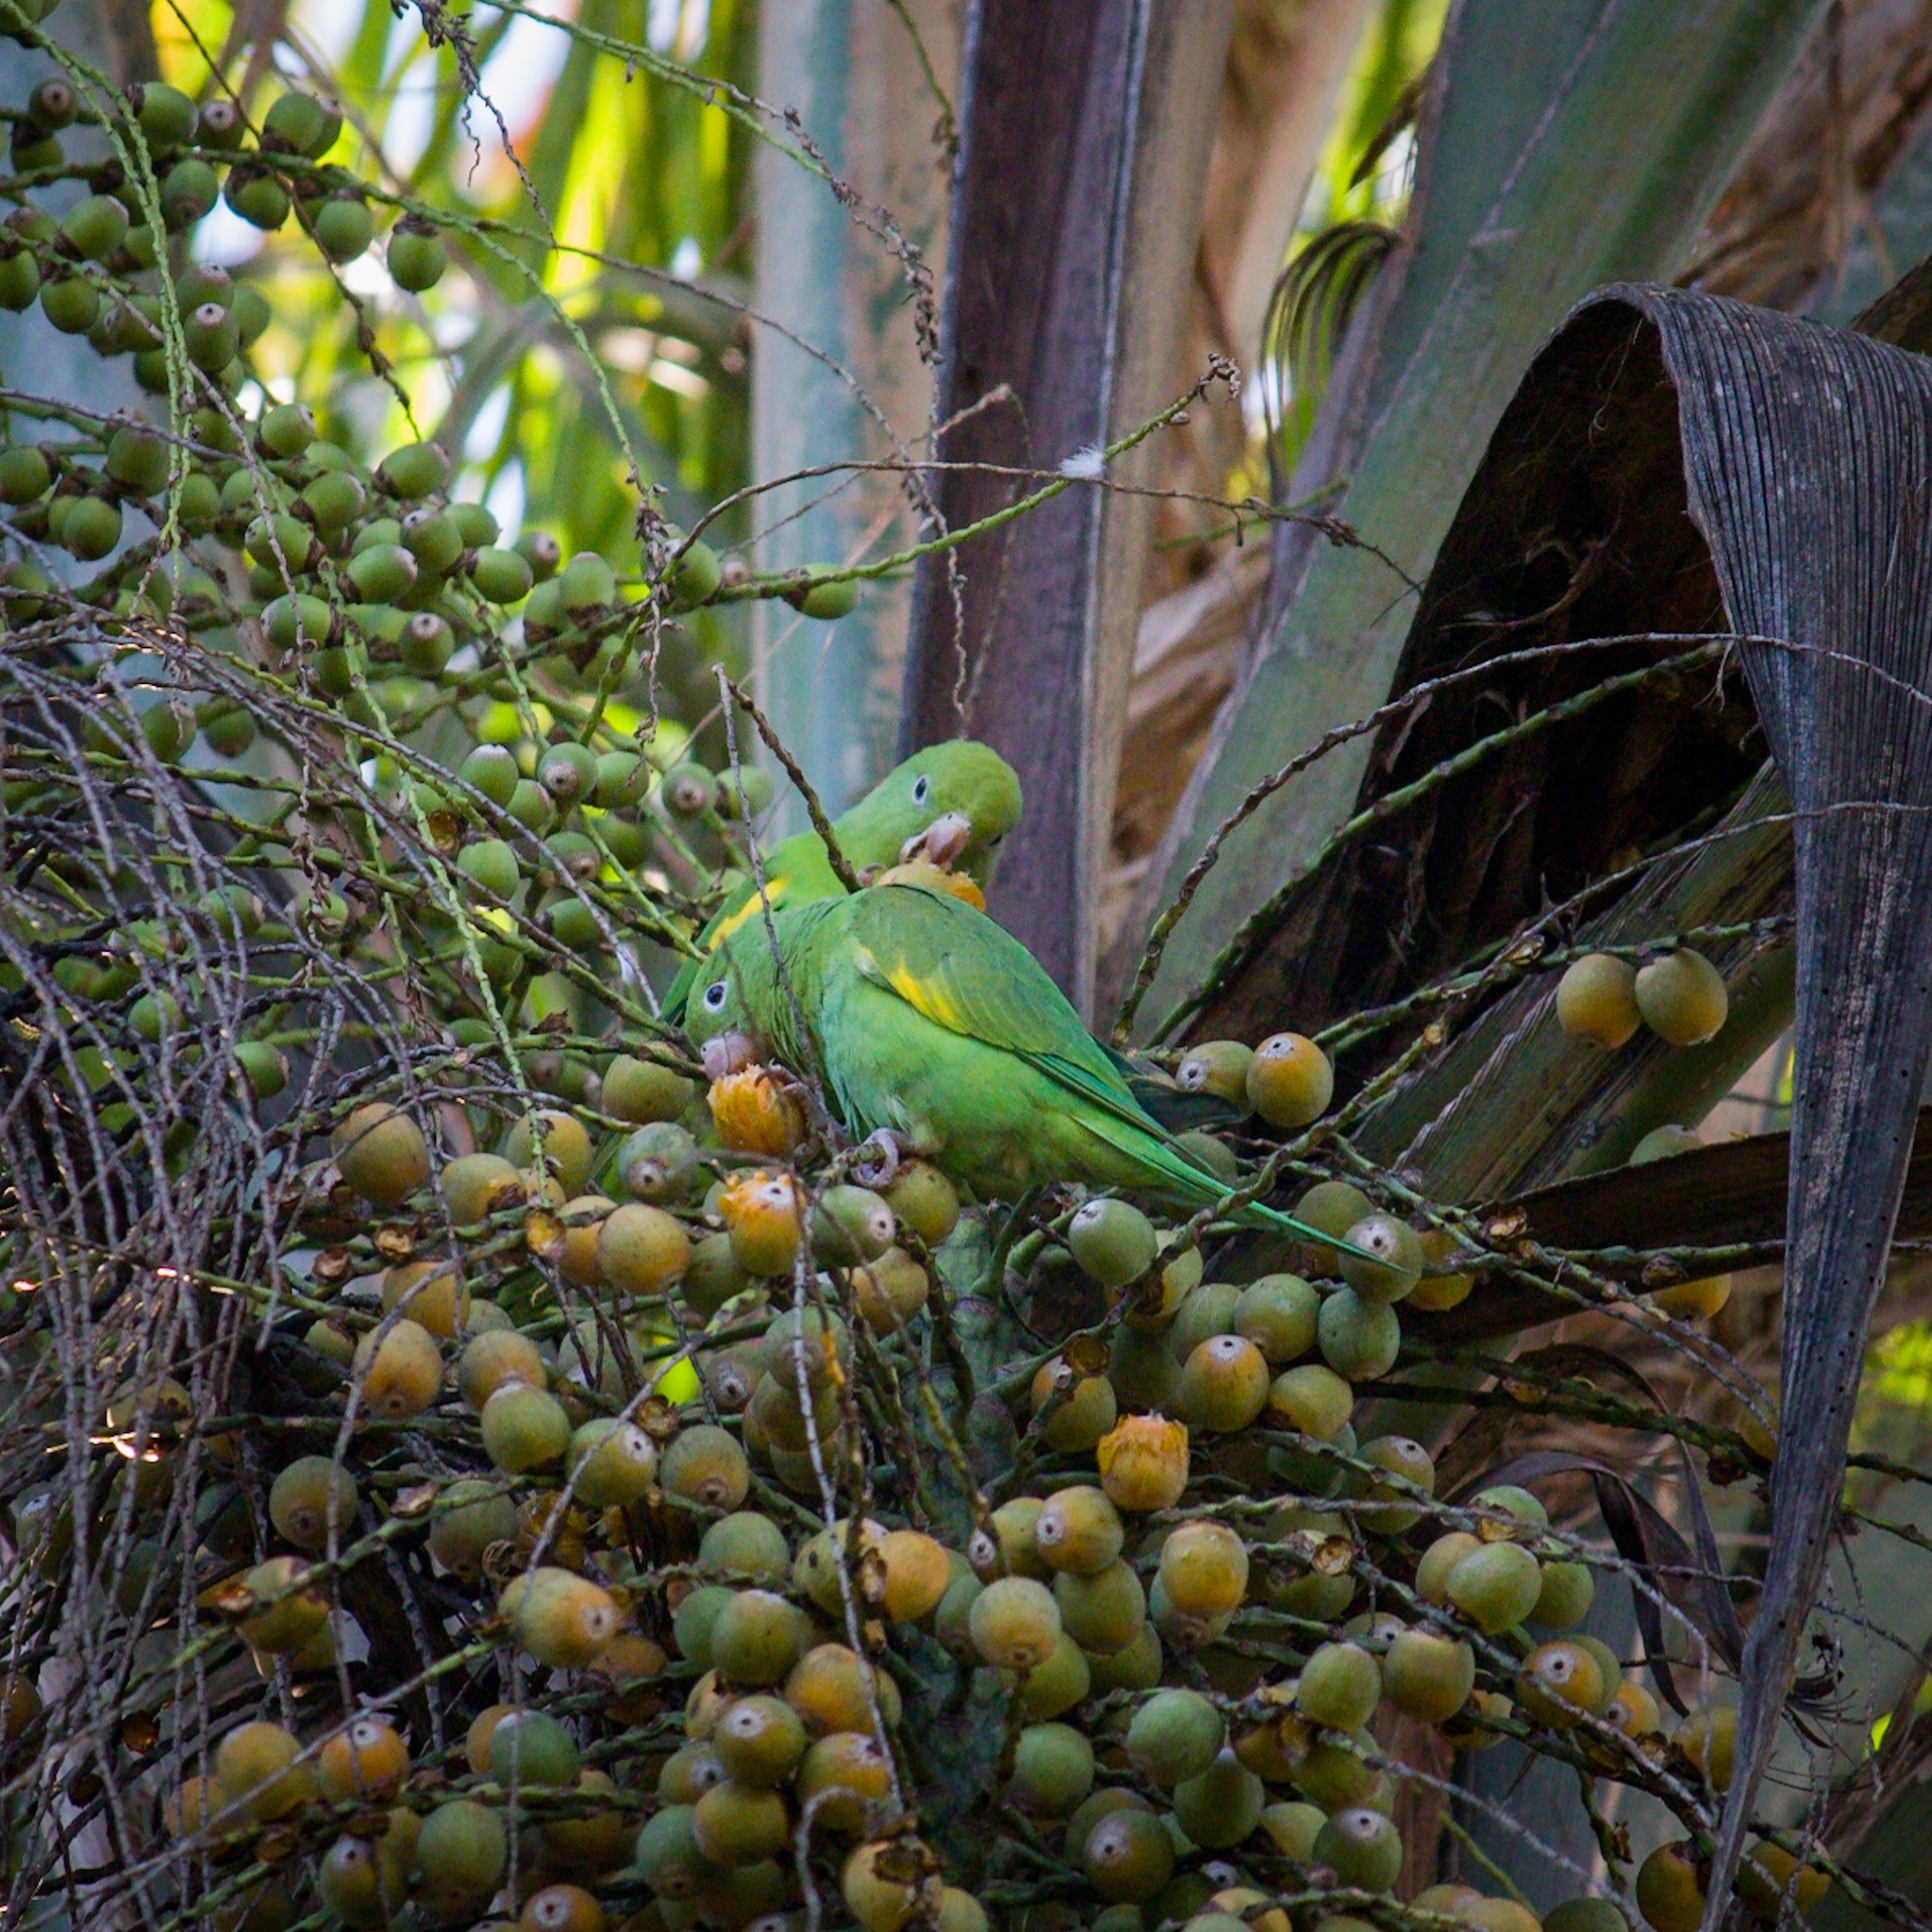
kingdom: Animalia
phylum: Chordata
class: Aves
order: Psittaciformes
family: Psittacidae
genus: Brotogeris
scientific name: Brotogeris chiriri
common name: Yellow-chevroned parakeet
